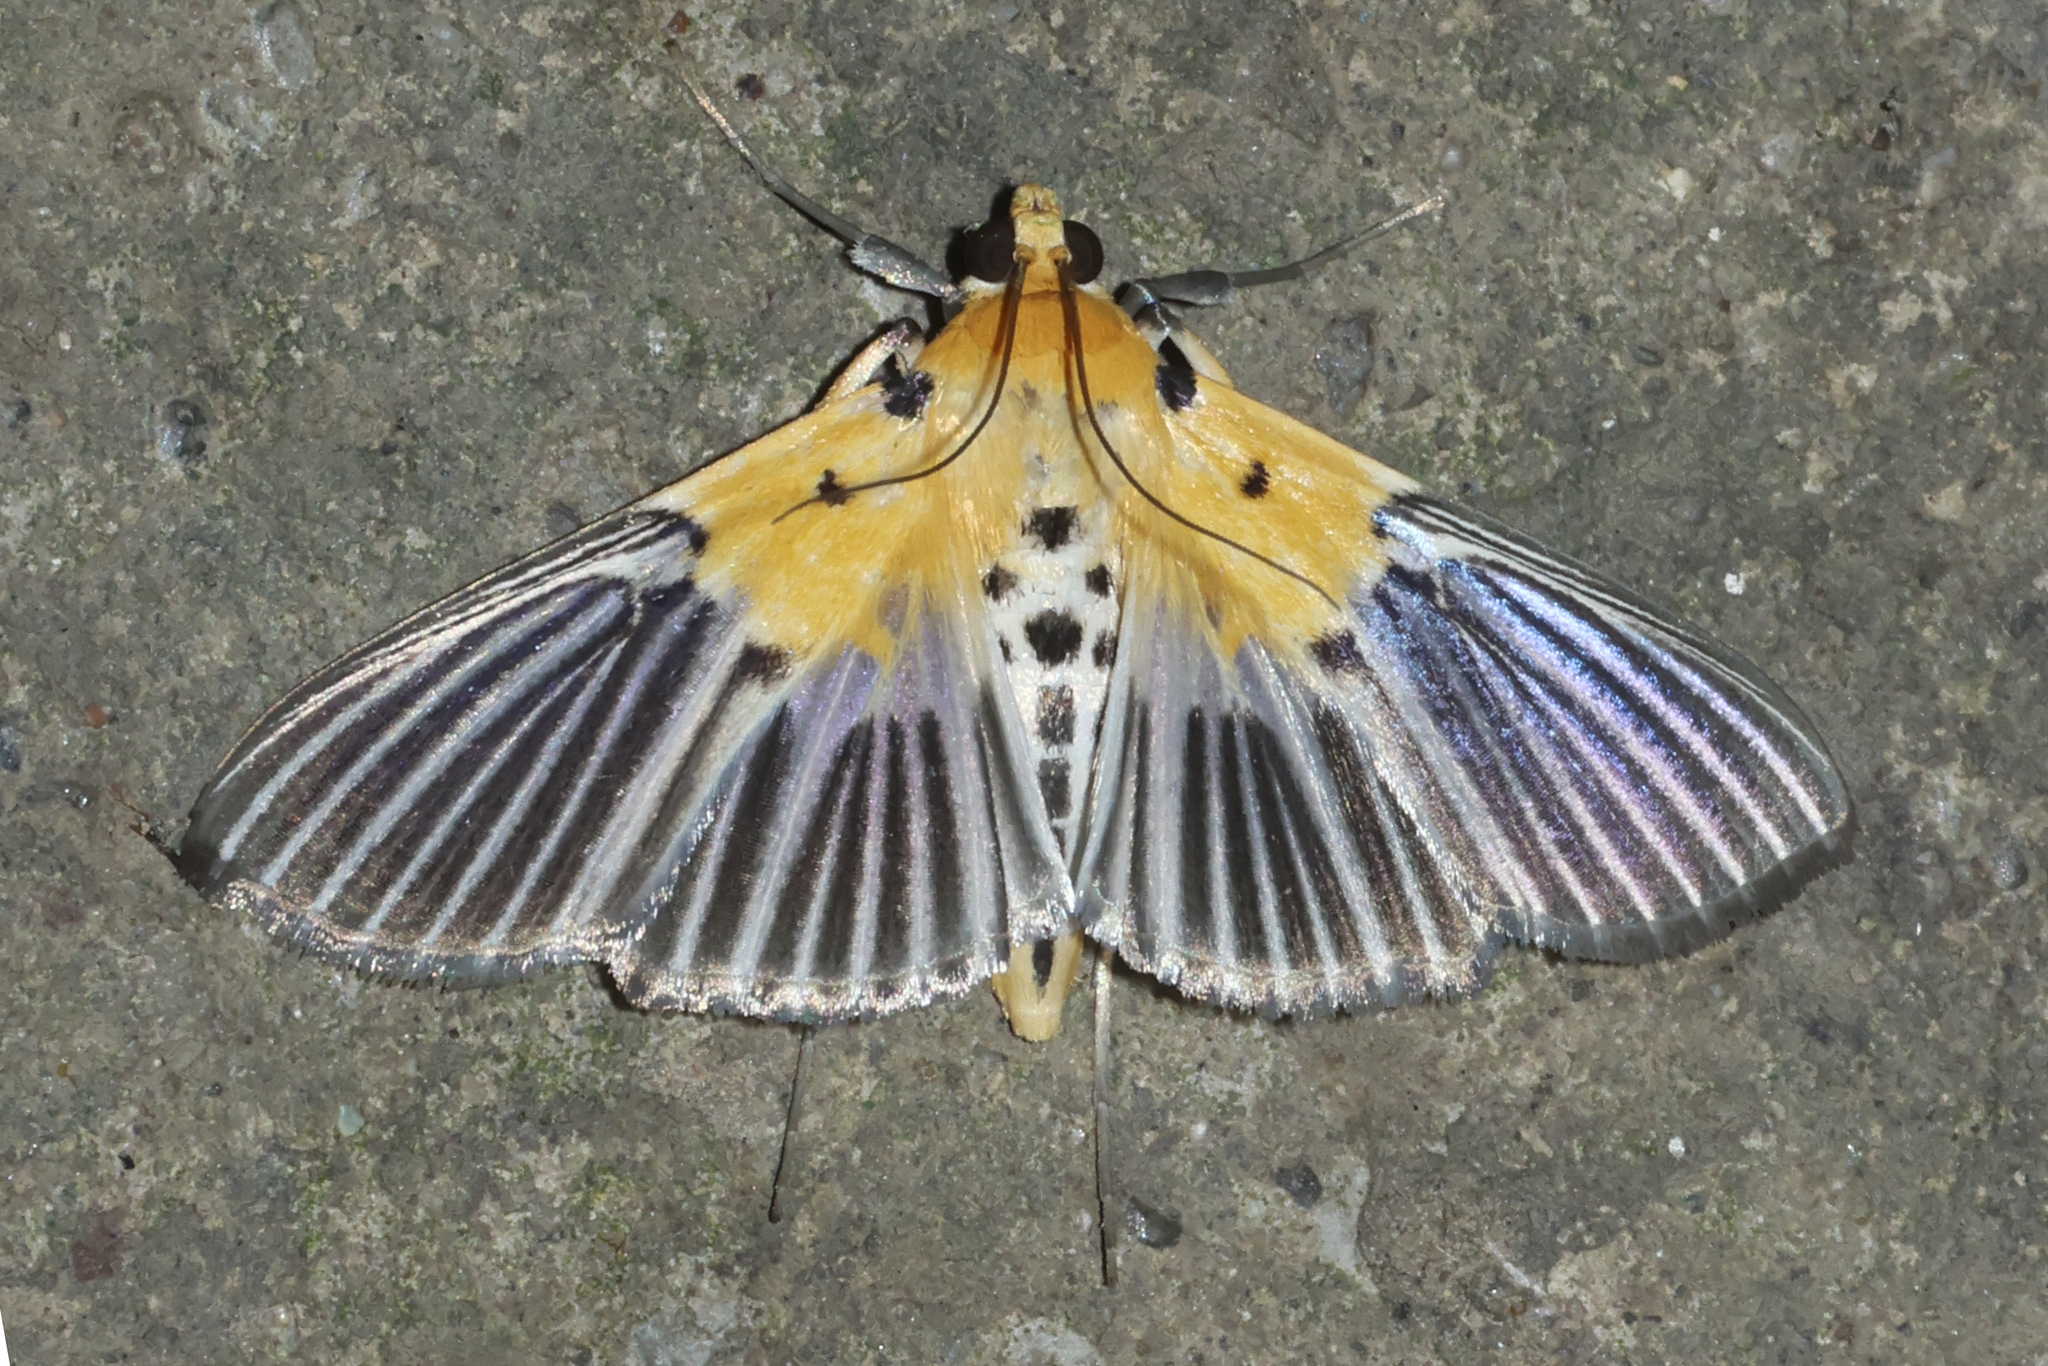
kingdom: Animalia
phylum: Arthropoda
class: Insecta
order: Lepidoptera
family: Crambidae
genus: Nevrina
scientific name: Nevrina procopia
